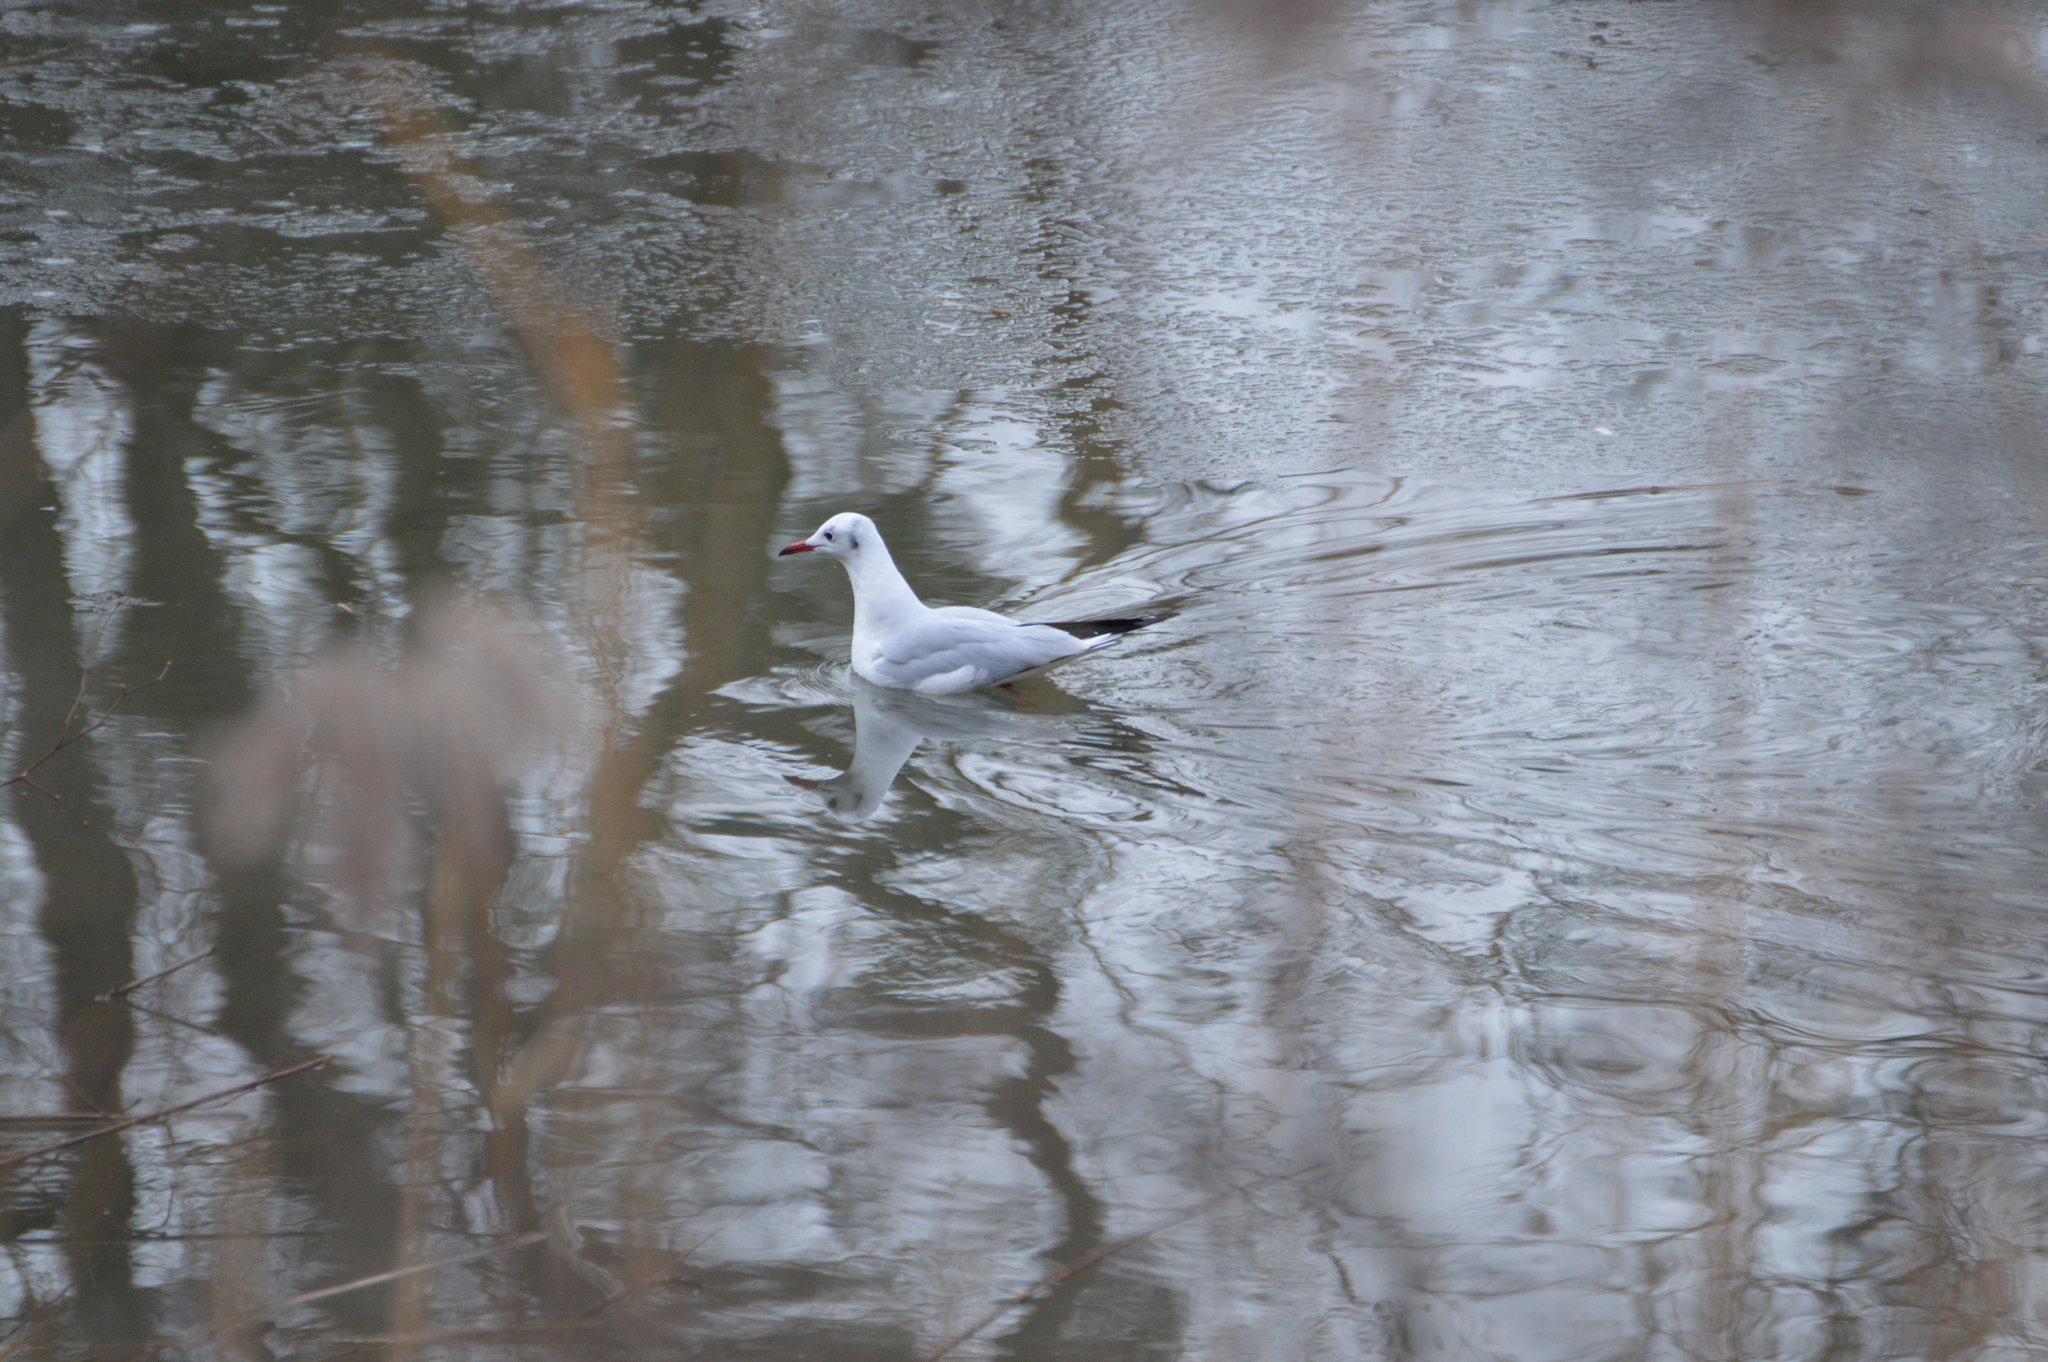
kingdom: Animalia
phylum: Chordata
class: Aves
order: Charadriiformes
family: Laridae
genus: Chroicocephalus
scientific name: Chroicocephalus ridibundus
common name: Black-headed gull
